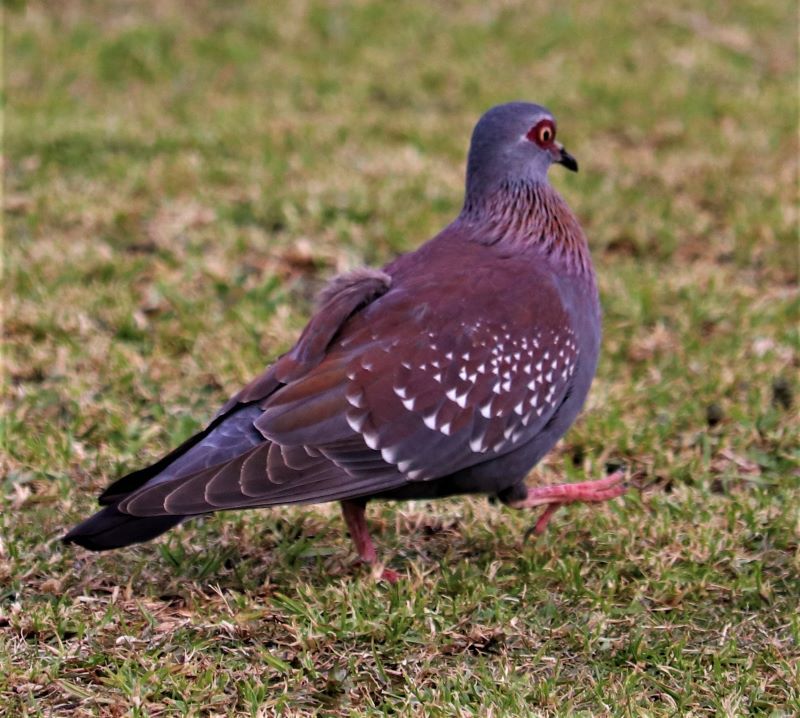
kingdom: Animalia
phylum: Chordata
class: Aves
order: Columbiformes
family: Columbidae
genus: Columba
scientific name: Columba guinea
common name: Speckled pigeon
